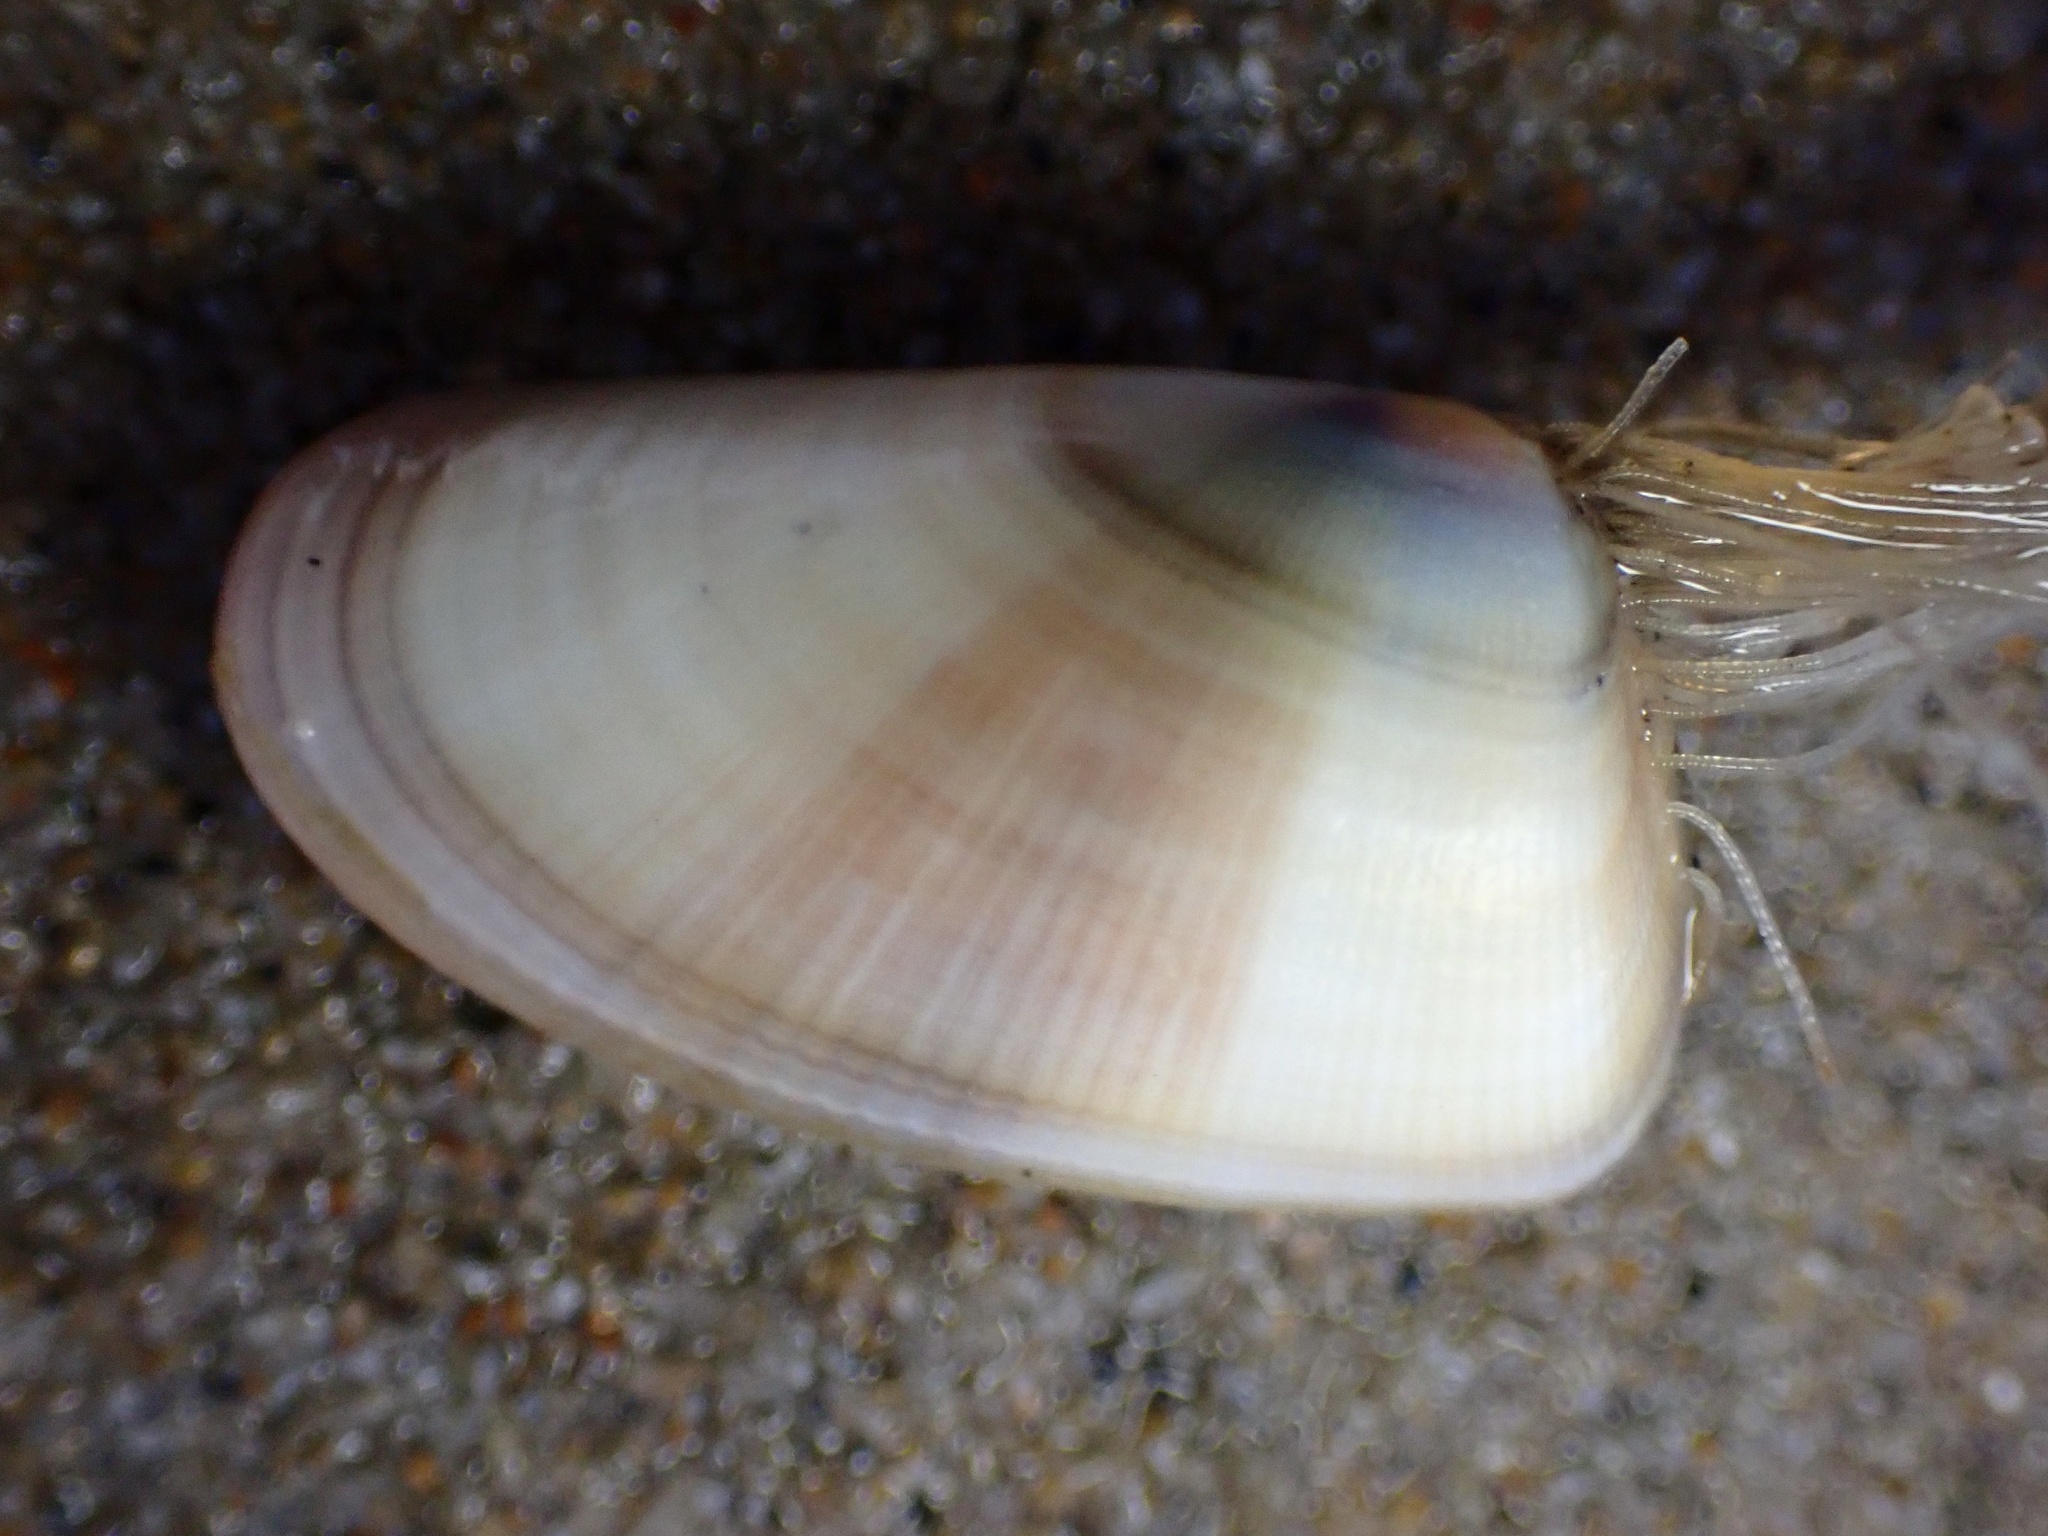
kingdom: Animalia
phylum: Mollusca
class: Bivalvia
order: Cardiida
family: Donacidae
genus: Donax
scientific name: Donax gouldii
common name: Gould beanclam
